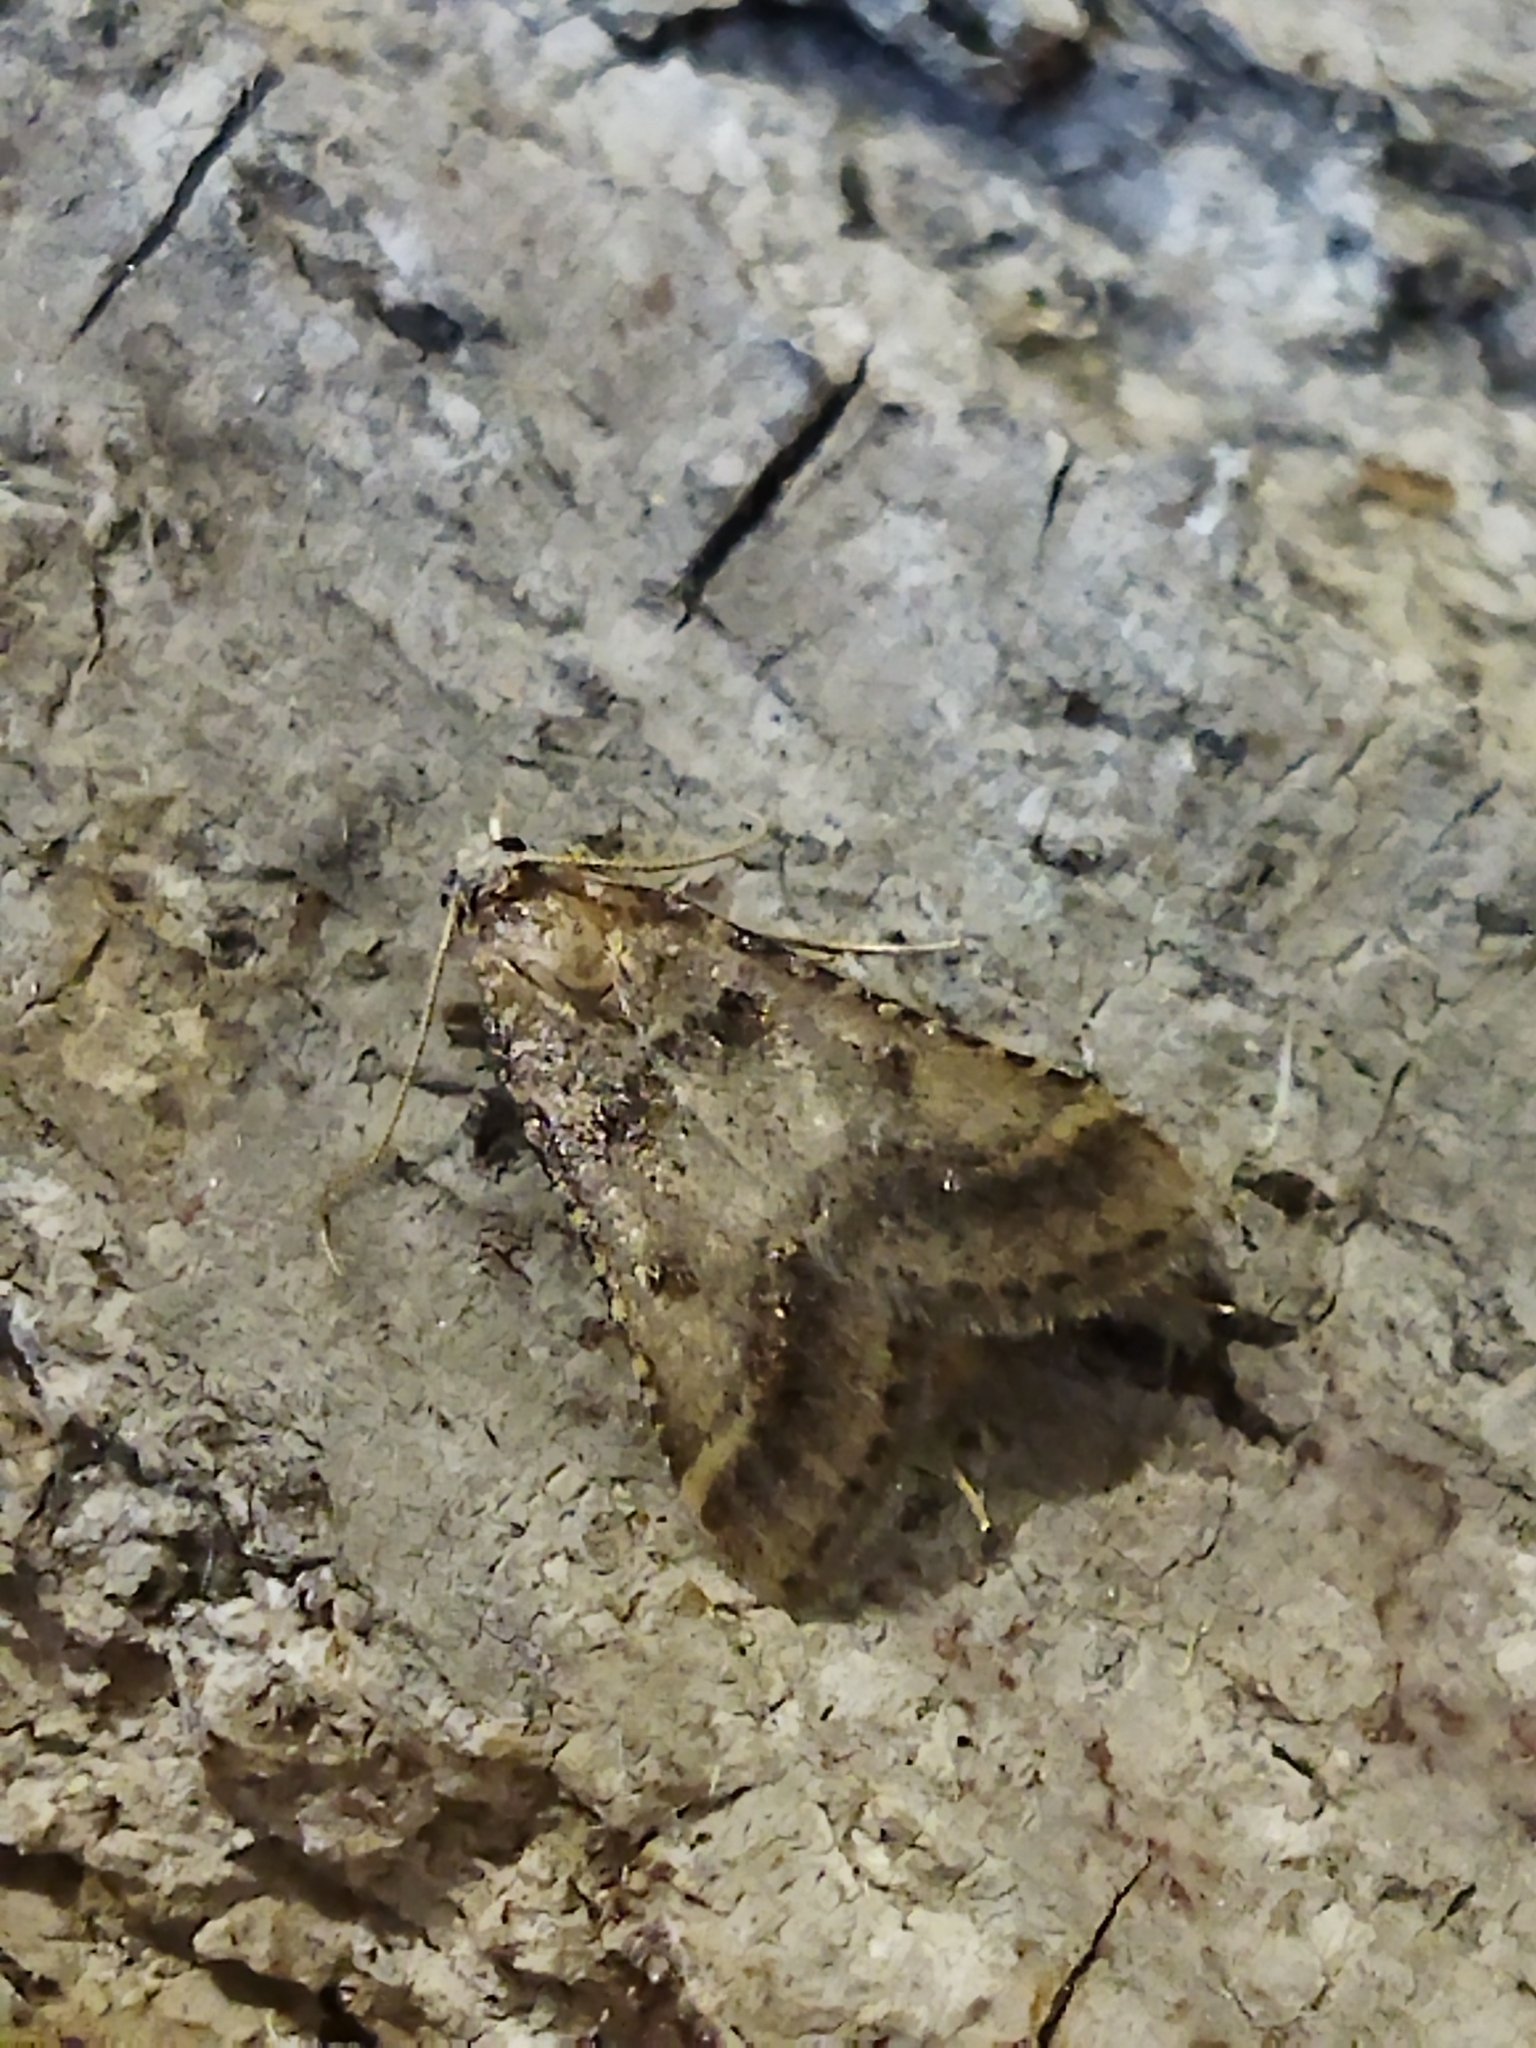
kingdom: Animalia
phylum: Arthropoda
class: Insecta
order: Lepidoptera
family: Pyralidae
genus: Stemmatophora
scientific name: Stemmatophora brunnealis
